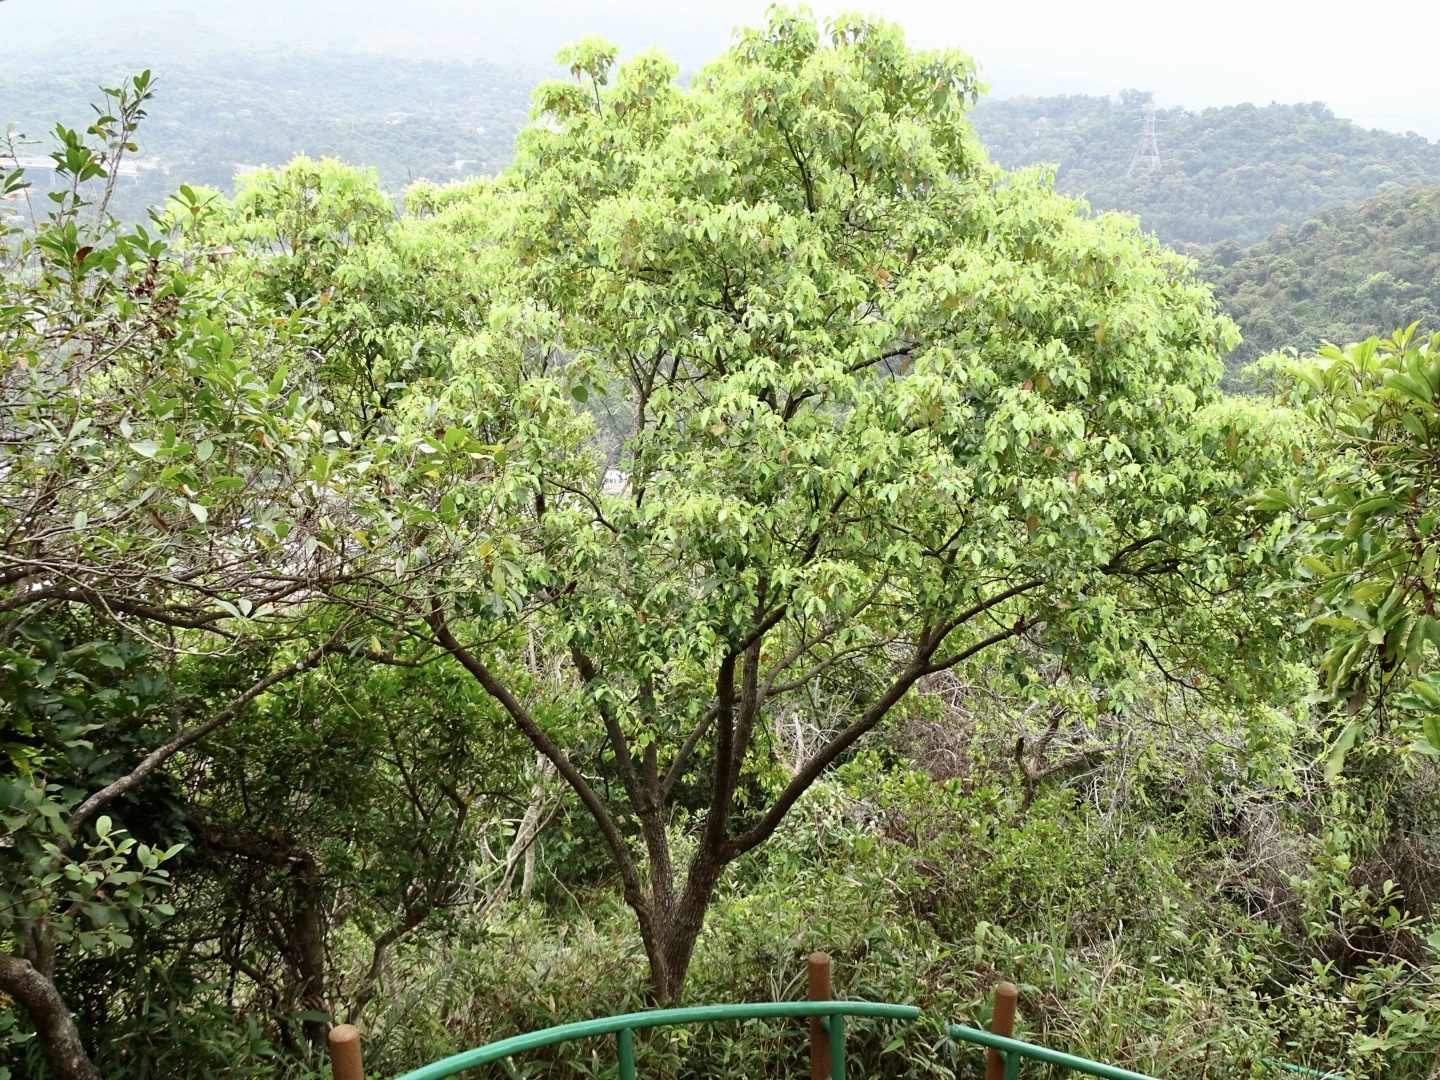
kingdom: Plantae
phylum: Tracheophyta
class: Magnoliopsida
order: Laurales
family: Lauraceae
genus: Cinnamomum
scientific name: Cinnamomum camphora
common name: Camphortree
